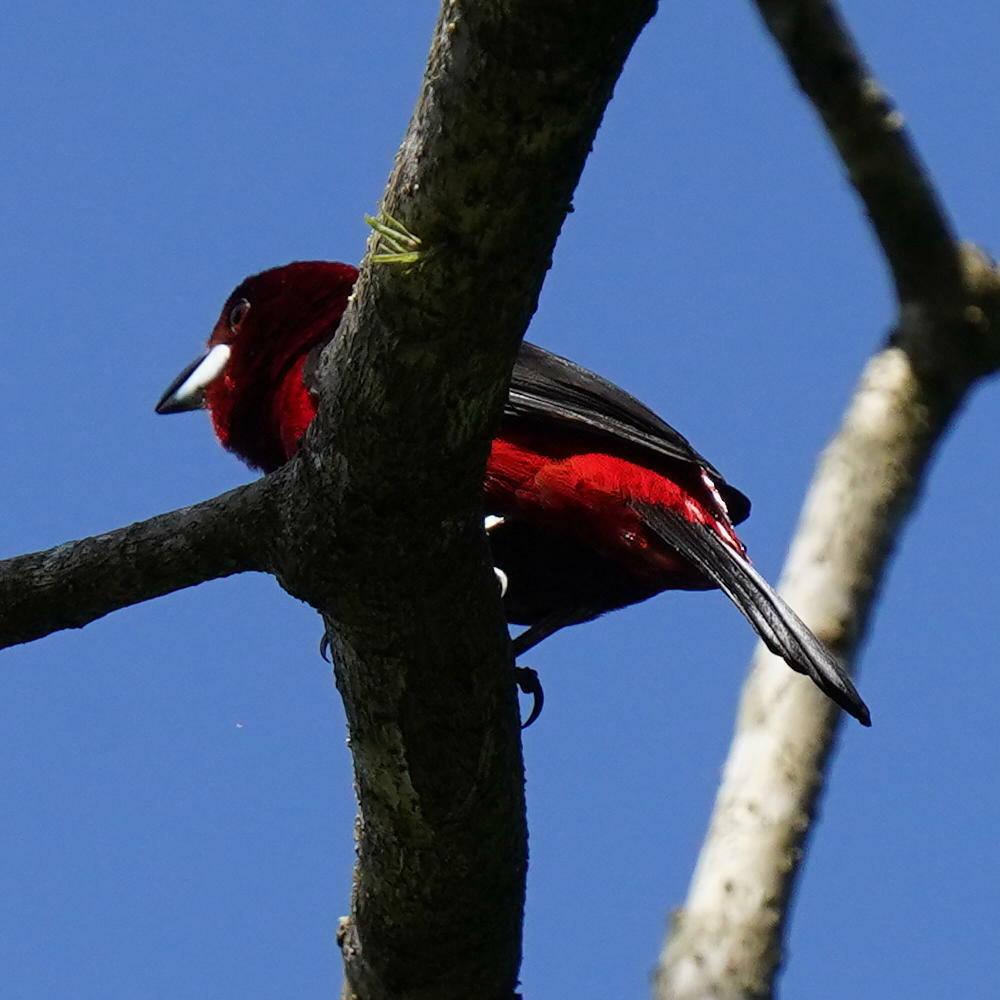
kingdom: Animalia
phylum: Chordata
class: Aves
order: Passeriformes
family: Thraupidae
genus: Ramphocelus
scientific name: Ramphocelus dimidiatus
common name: Crimson-backed tanager
